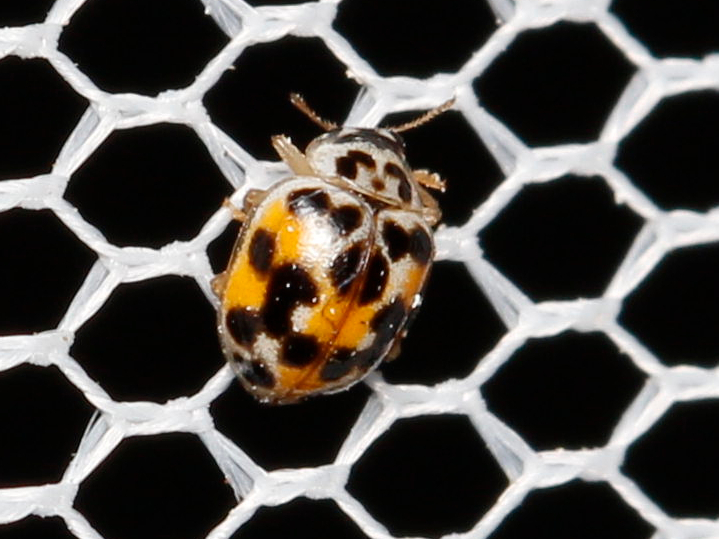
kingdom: Animalia
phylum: Arthropoda
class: Insecta
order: Coleoptera
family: Coccinellidae
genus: Psyllobora
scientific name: Psyllobora vigintimaculata
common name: Ladybird beetle
